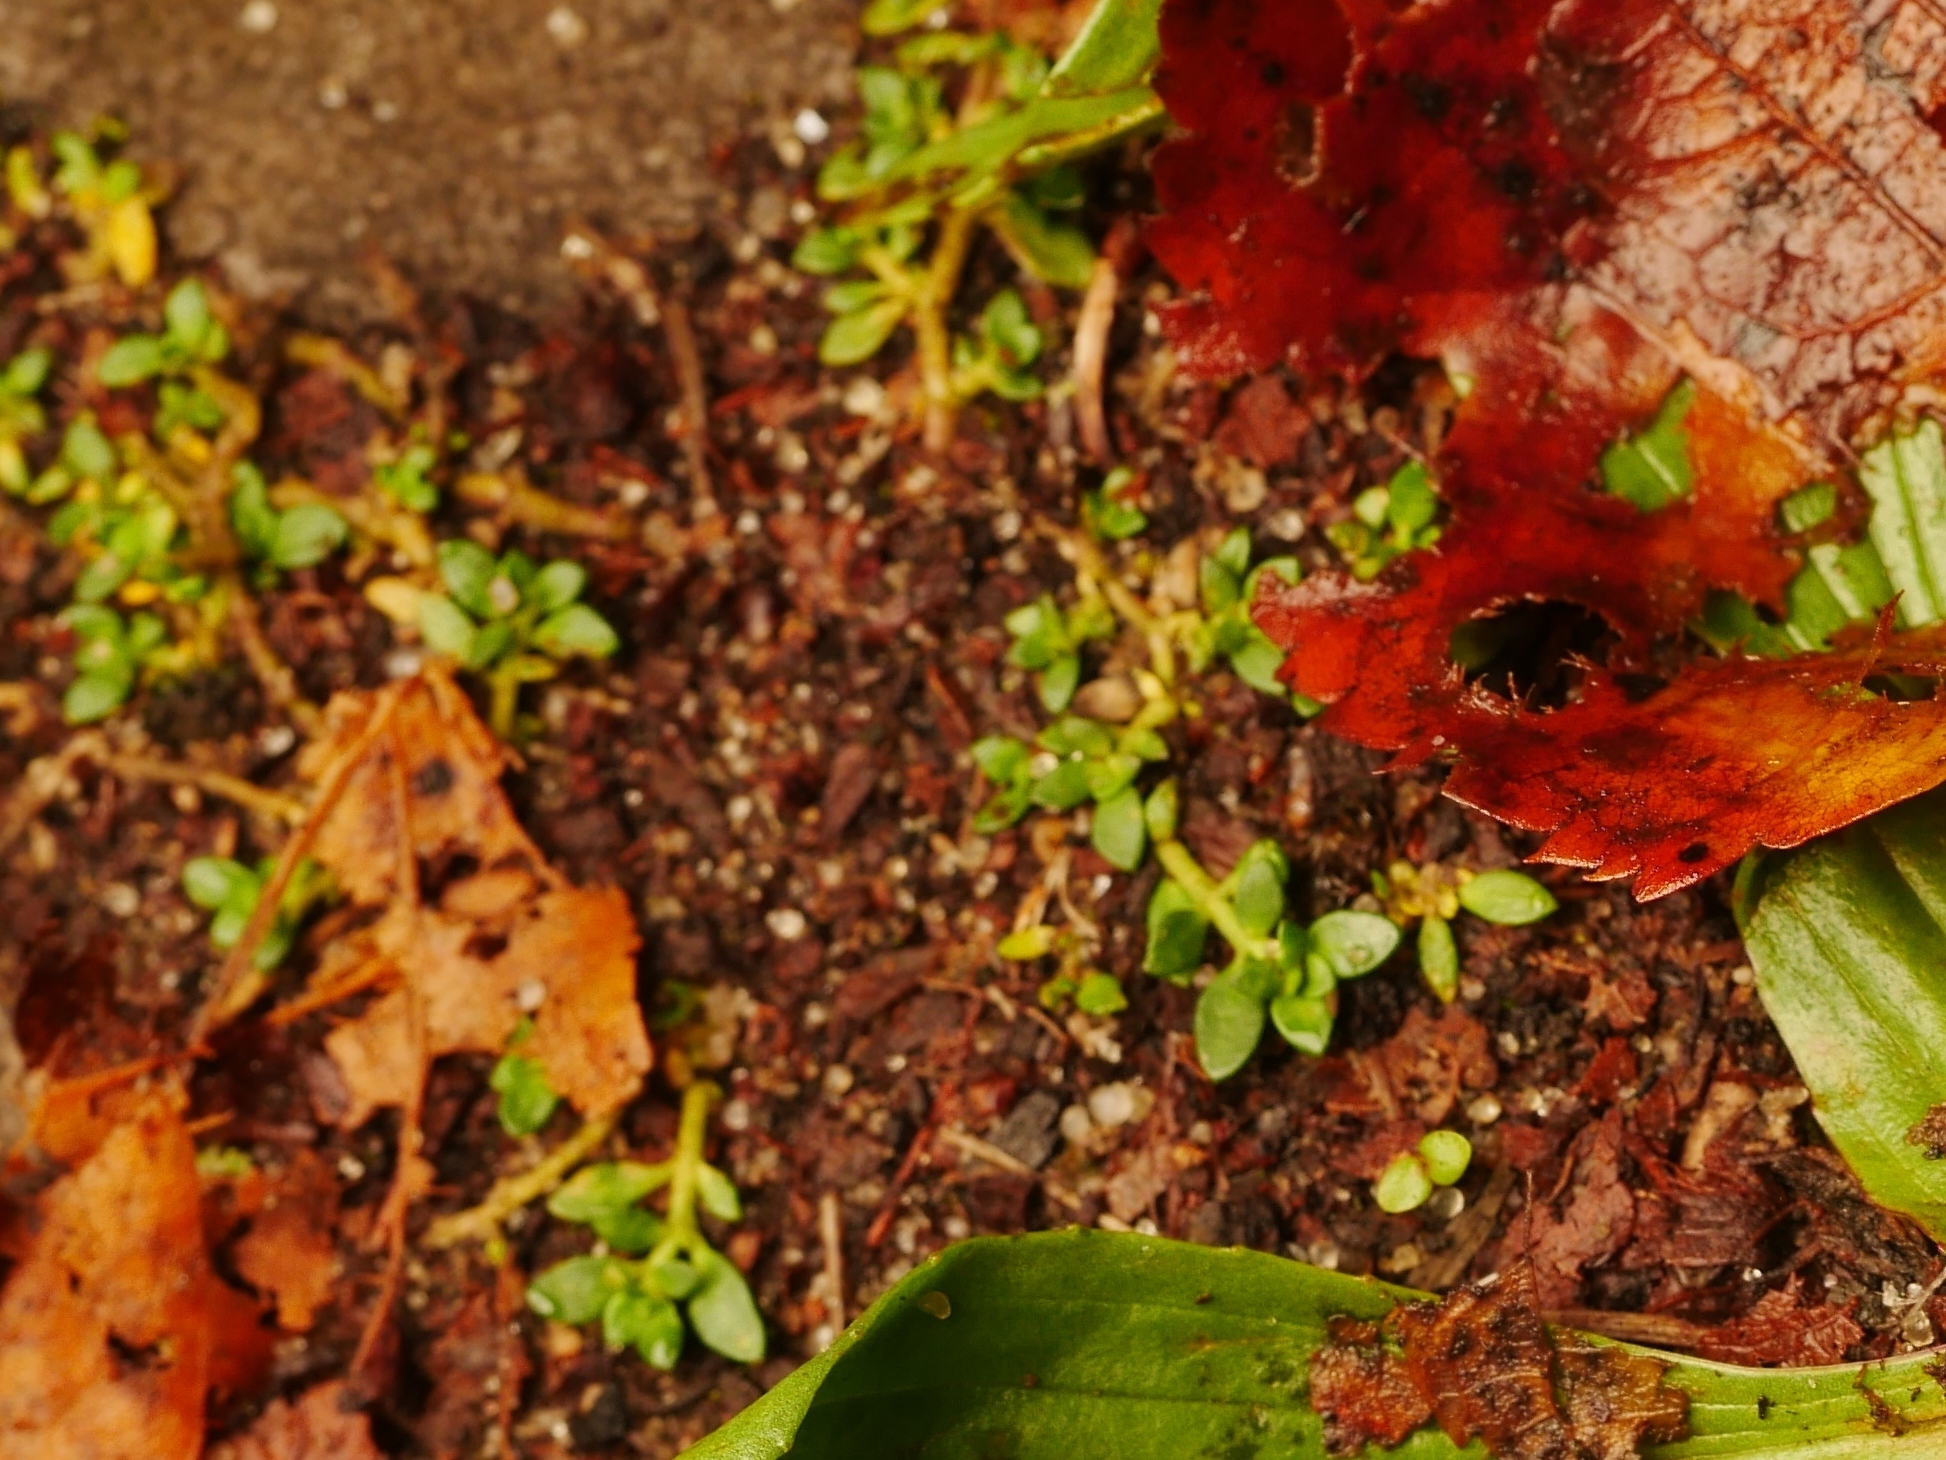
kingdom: Plantae
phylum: Tracheophyta
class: Magnoliopsida
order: Caryophyllales
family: Caryophyllaceae
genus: Herniaria
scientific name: Herniaria glabra
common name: Smooth rupturewort
